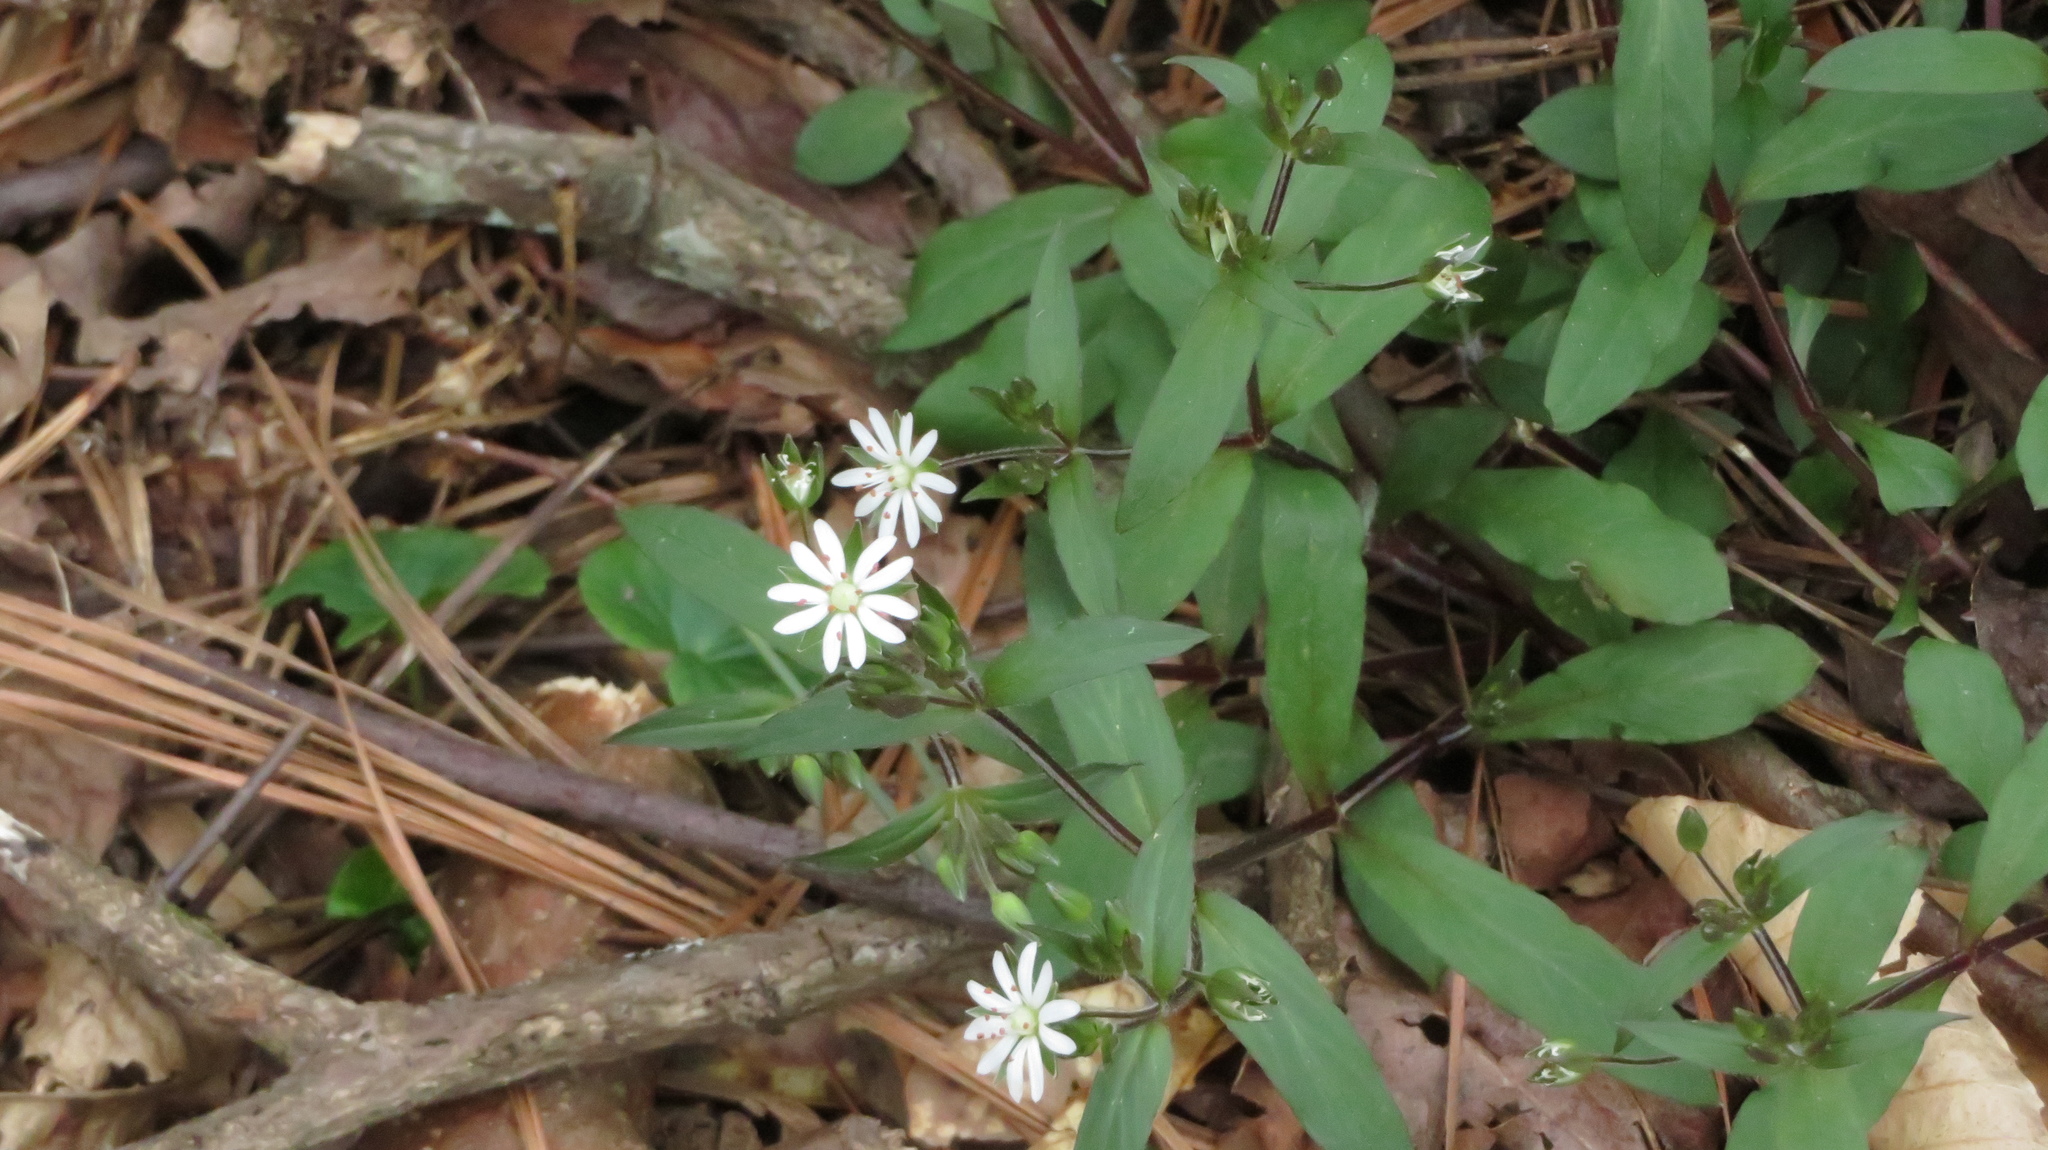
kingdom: Plantae
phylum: Tracheophyta
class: Magnoliopsida
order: Caryophyllales
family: Caryophyllaceae
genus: Stellaria
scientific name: Stellaria pubera
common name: Star chickweed
